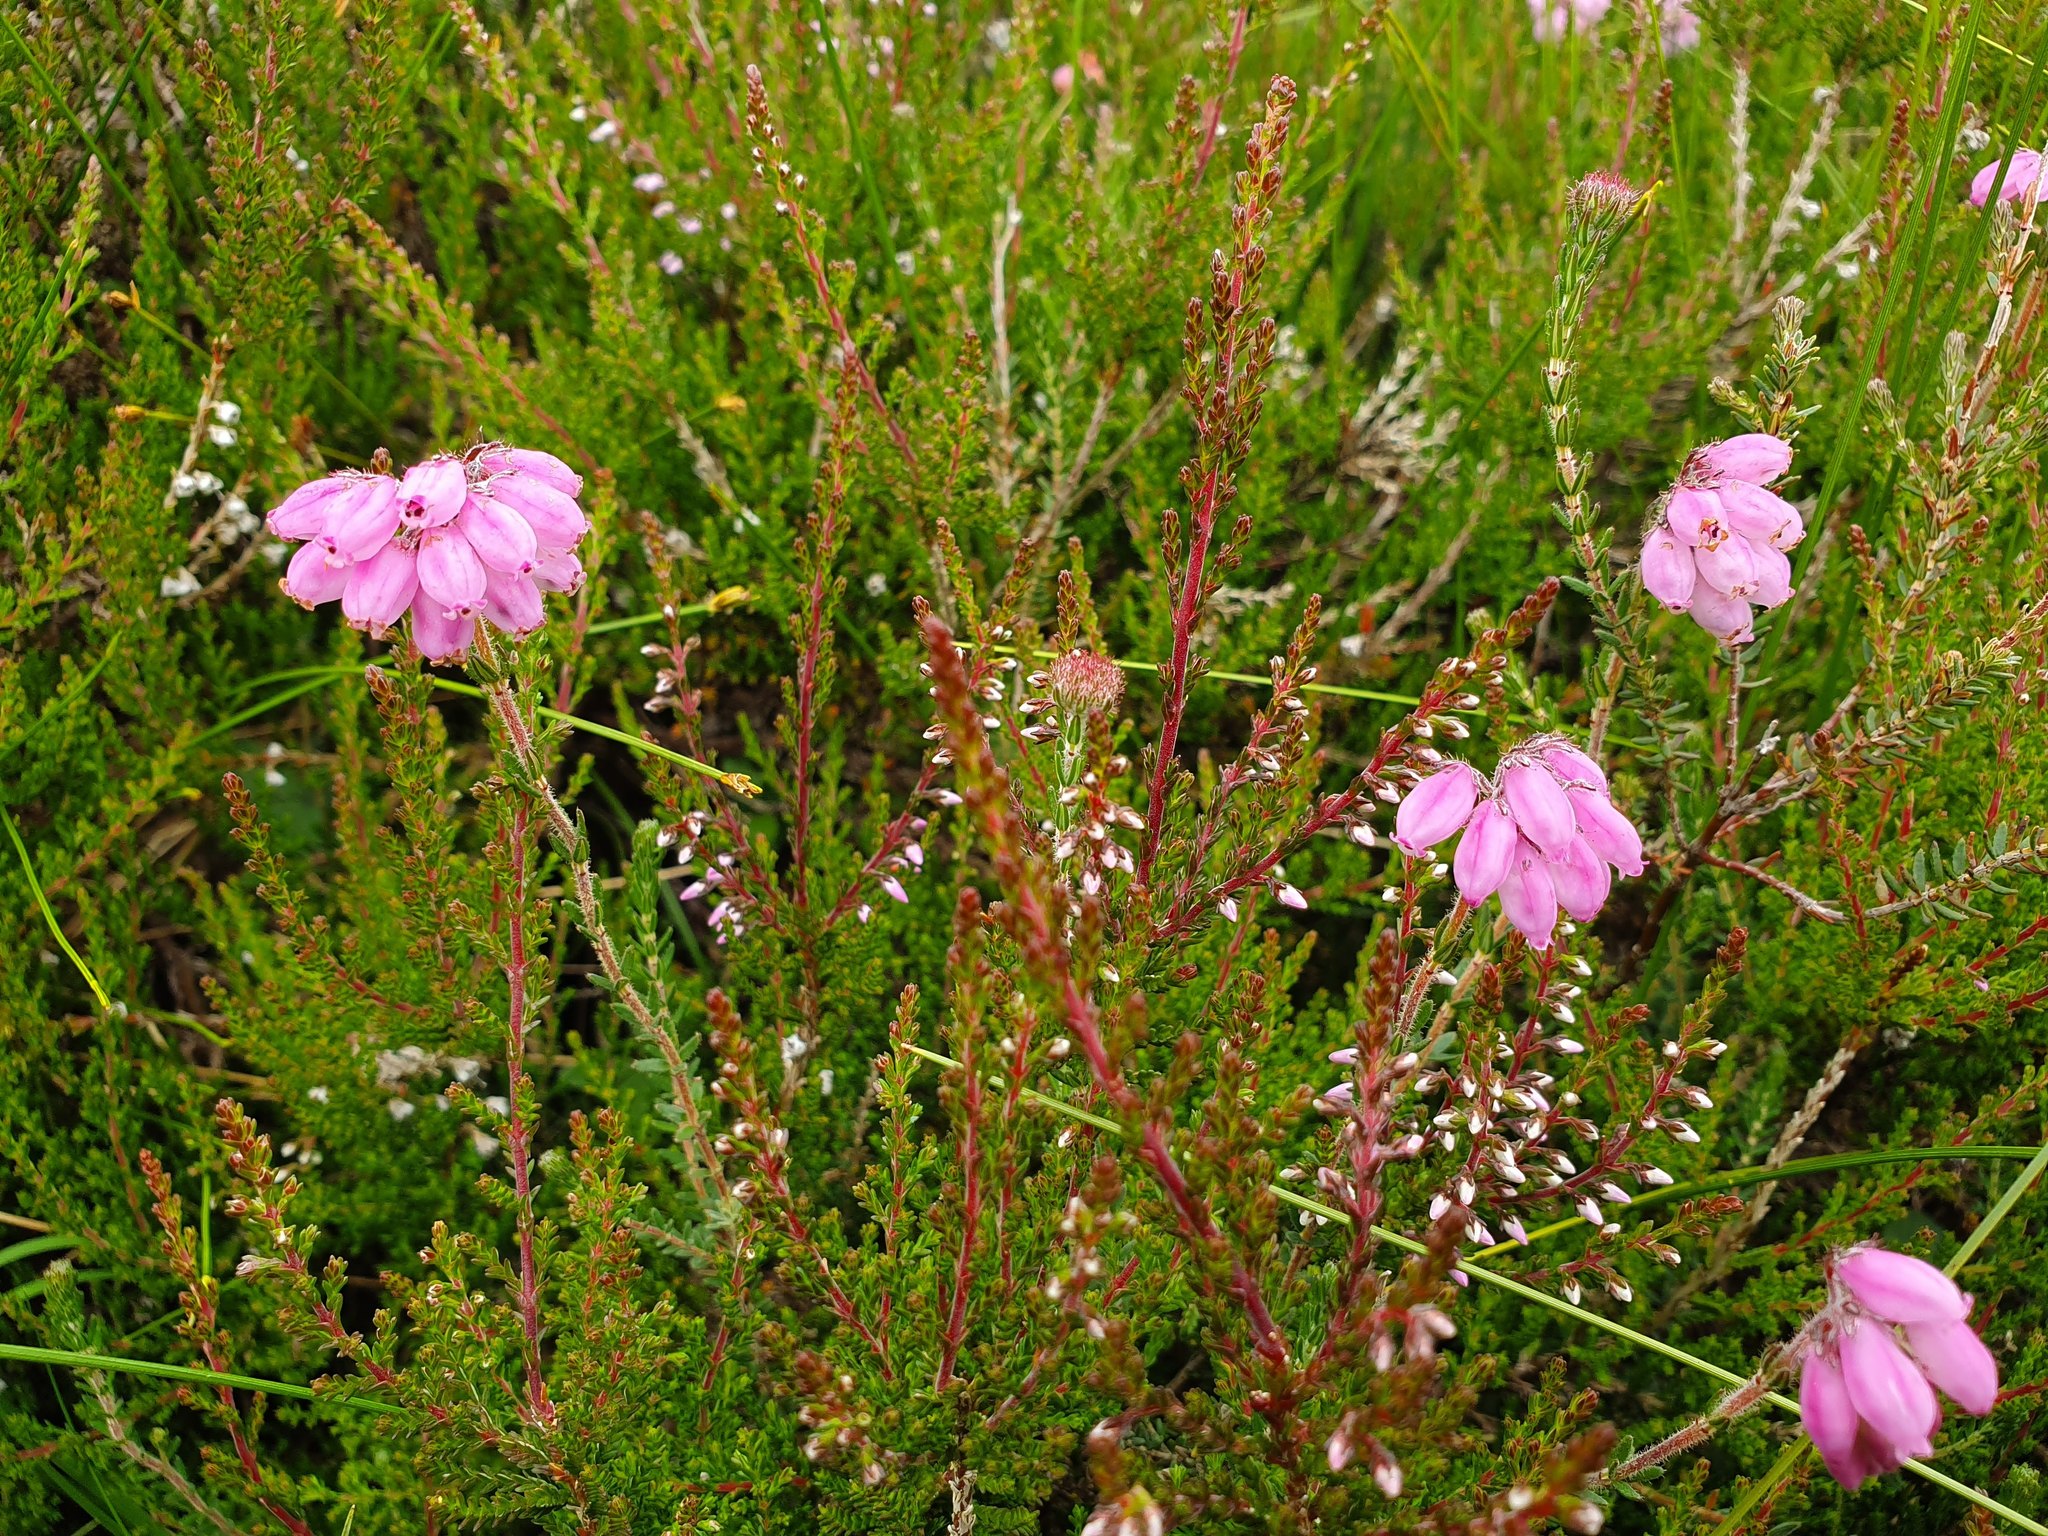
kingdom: Plantae
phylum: Tracheophyta
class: Magnoliopsida
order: Ericales
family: Ericaceae
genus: Erica
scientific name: Erica tetralix
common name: Cross-leaved heath
